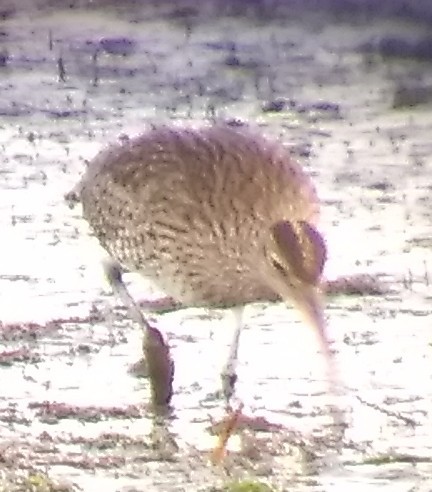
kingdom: Animalia
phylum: Chordata
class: Aves
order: Charadriiformes
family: Scolopacidae
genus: Numenius
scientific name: Numenius phaeopus
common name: Whimbrel
